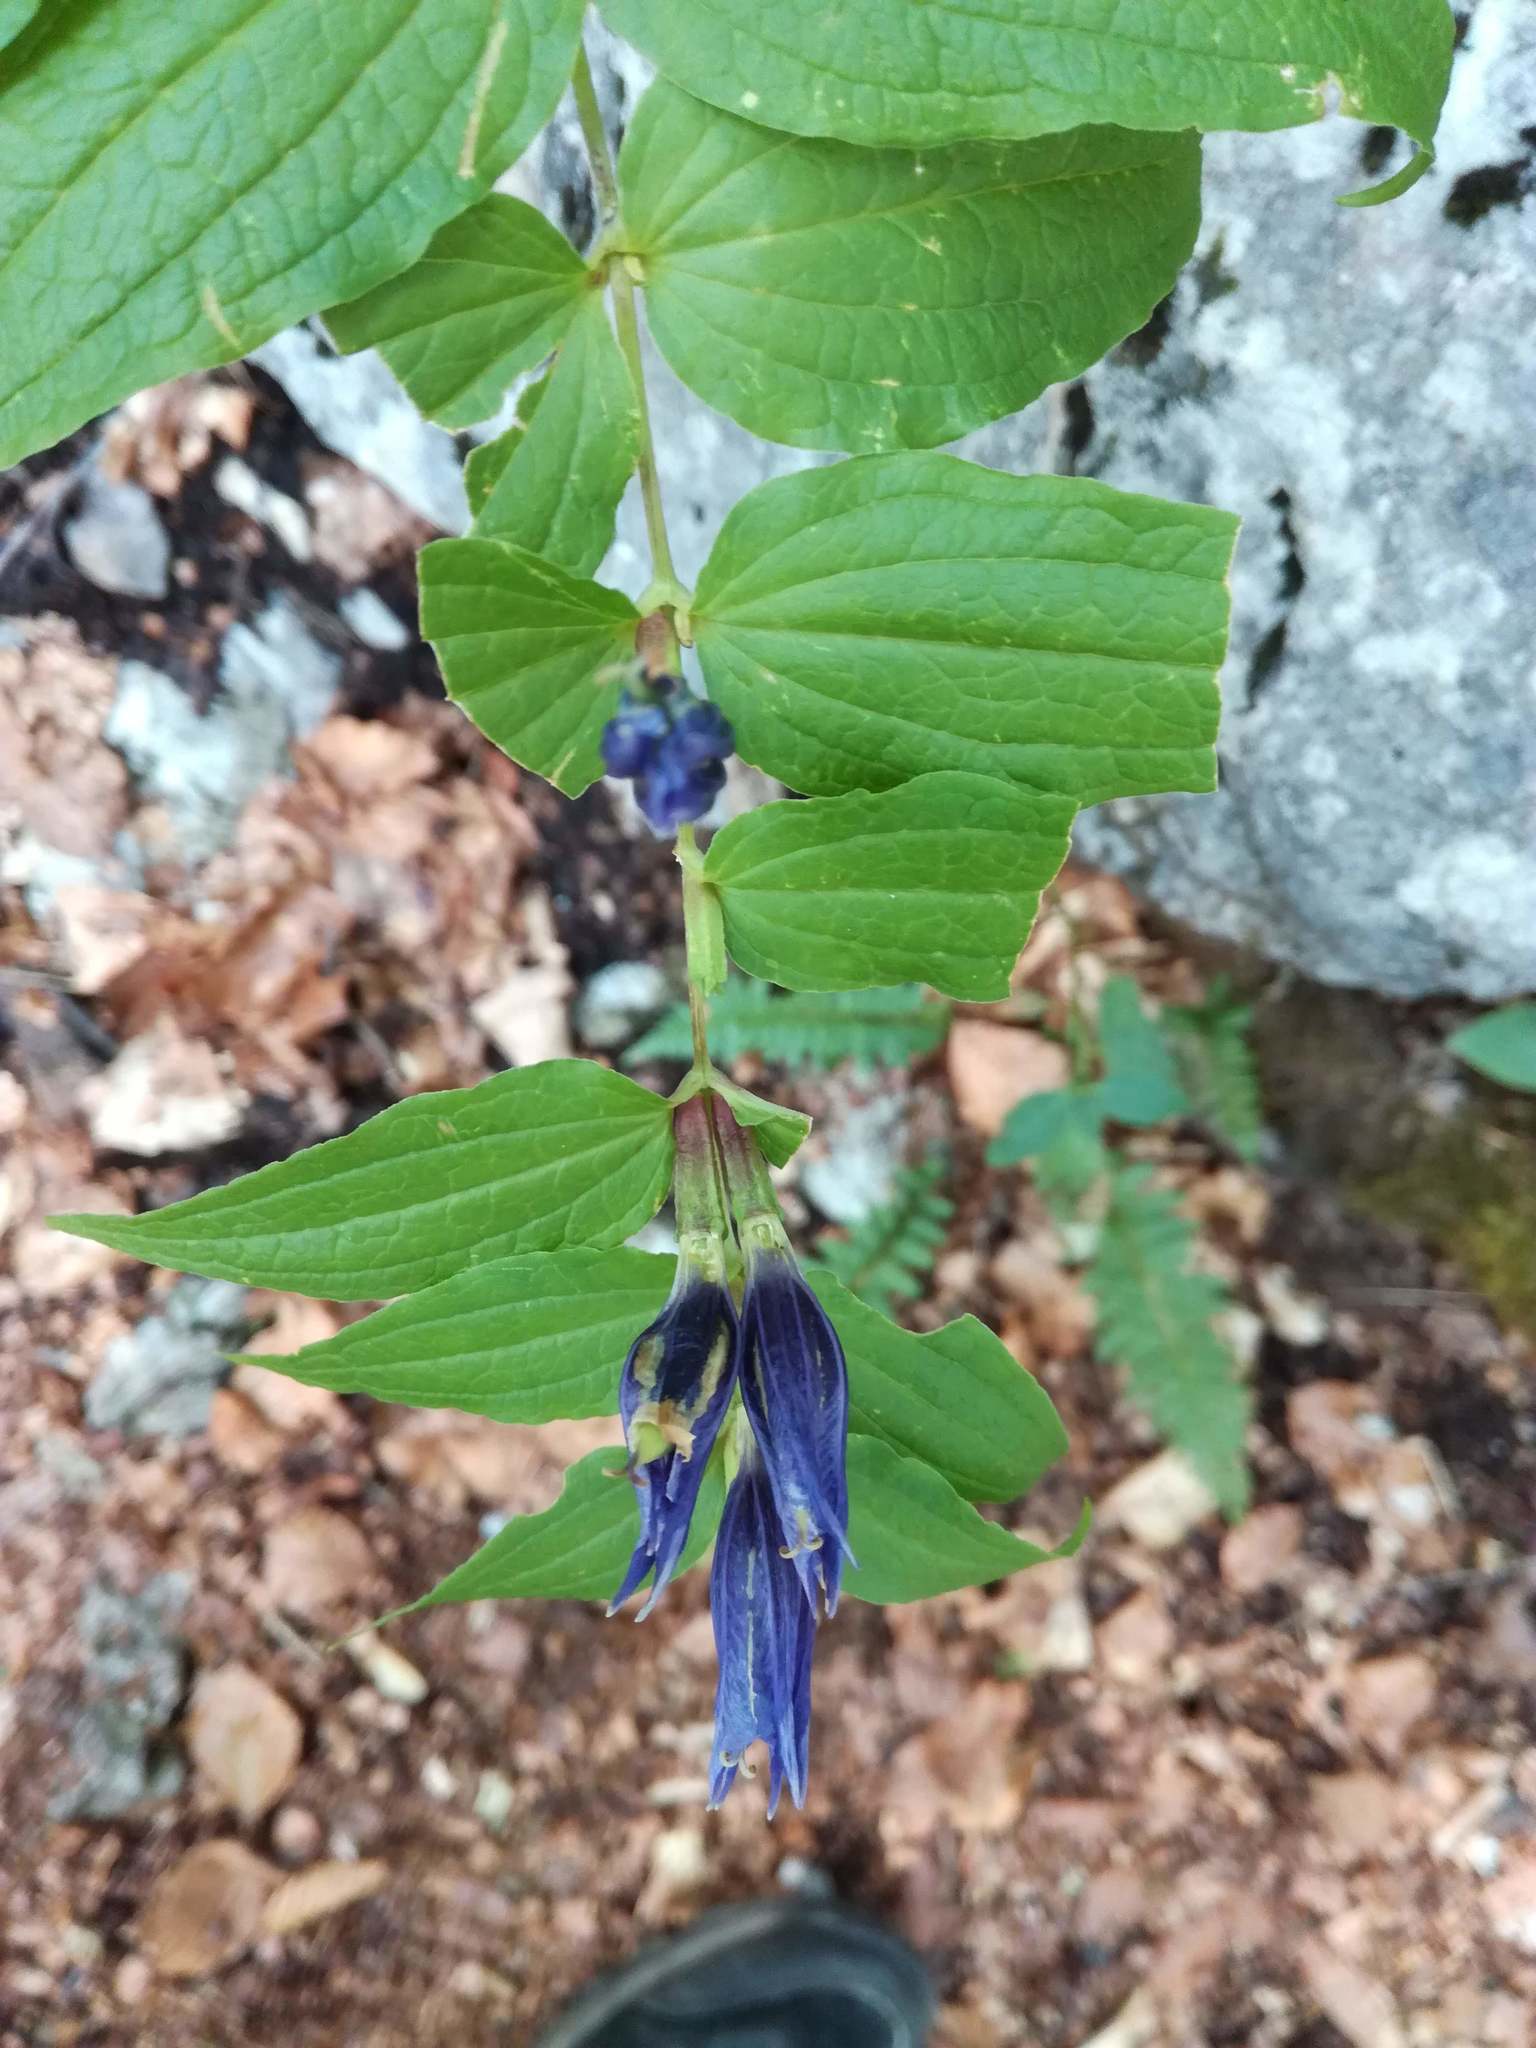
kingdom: Plantae
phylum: Tracheophyta
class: Magnoliopsida
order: Gentianales
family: Gentianaceae
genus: Gentiana
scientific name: Gentiana asclepiadea
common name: Willow gentian
